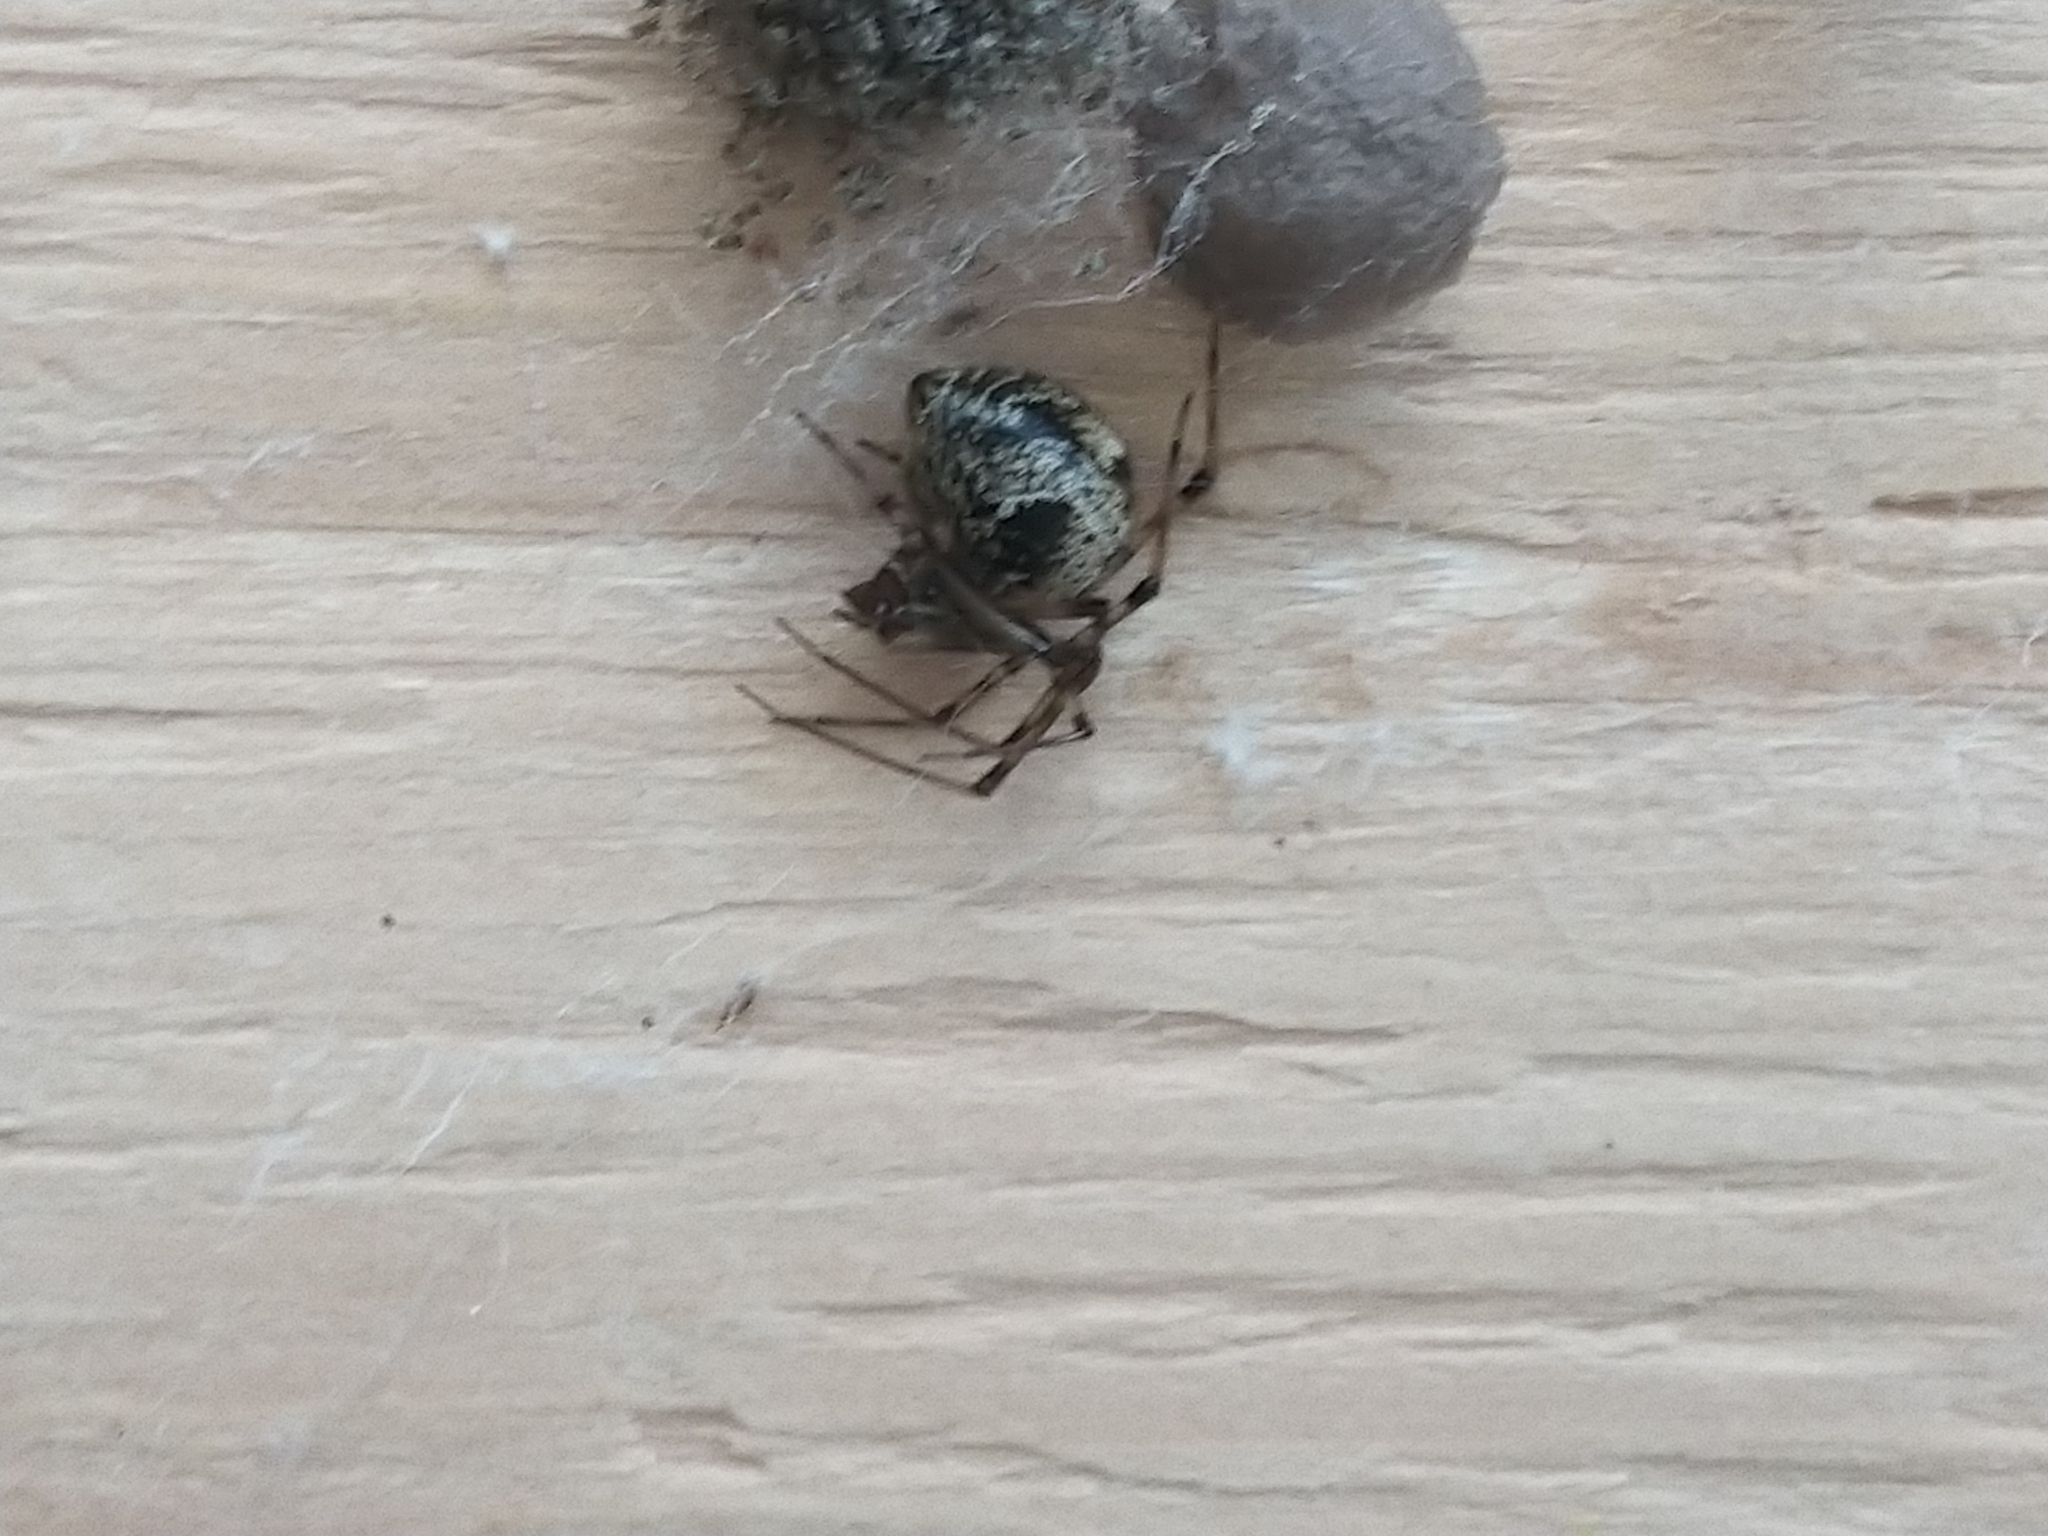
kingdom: Animalia
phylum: Arthropoda
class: Arachnida
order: Araneae
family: Theridiidae
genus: Parasteatoda
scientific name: Parasteatoda tepidariorum
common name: Common house spider
